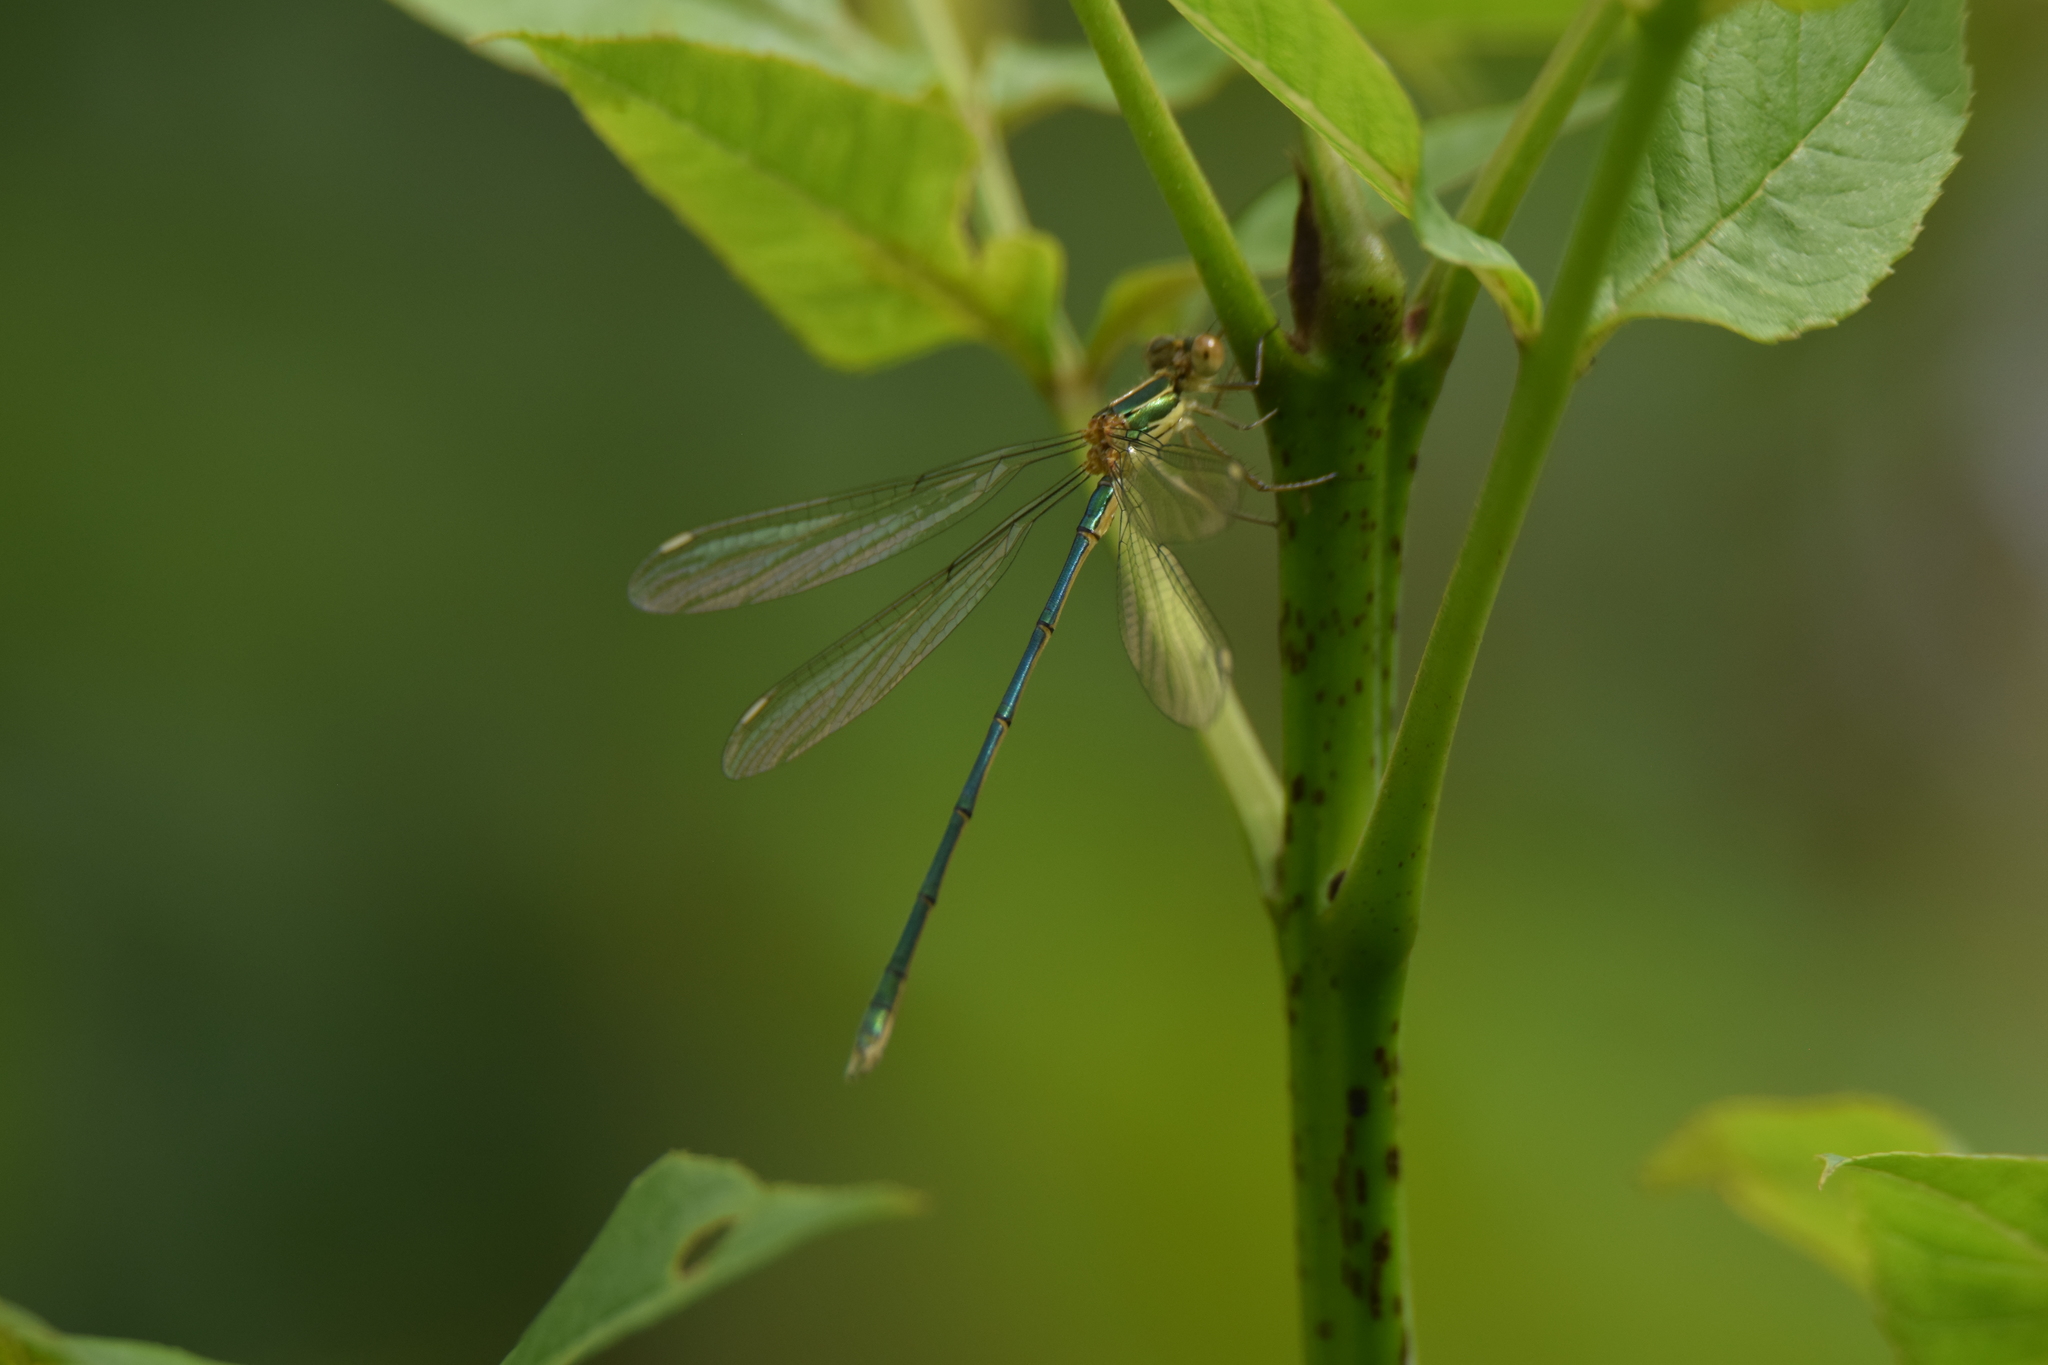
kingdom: Animalia
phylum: Arthropoda
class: Insecta
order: Odonata
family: Lestidae
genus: Chalcolestes
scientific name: Chalcolestes viridis
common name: Green emerald damselfly
